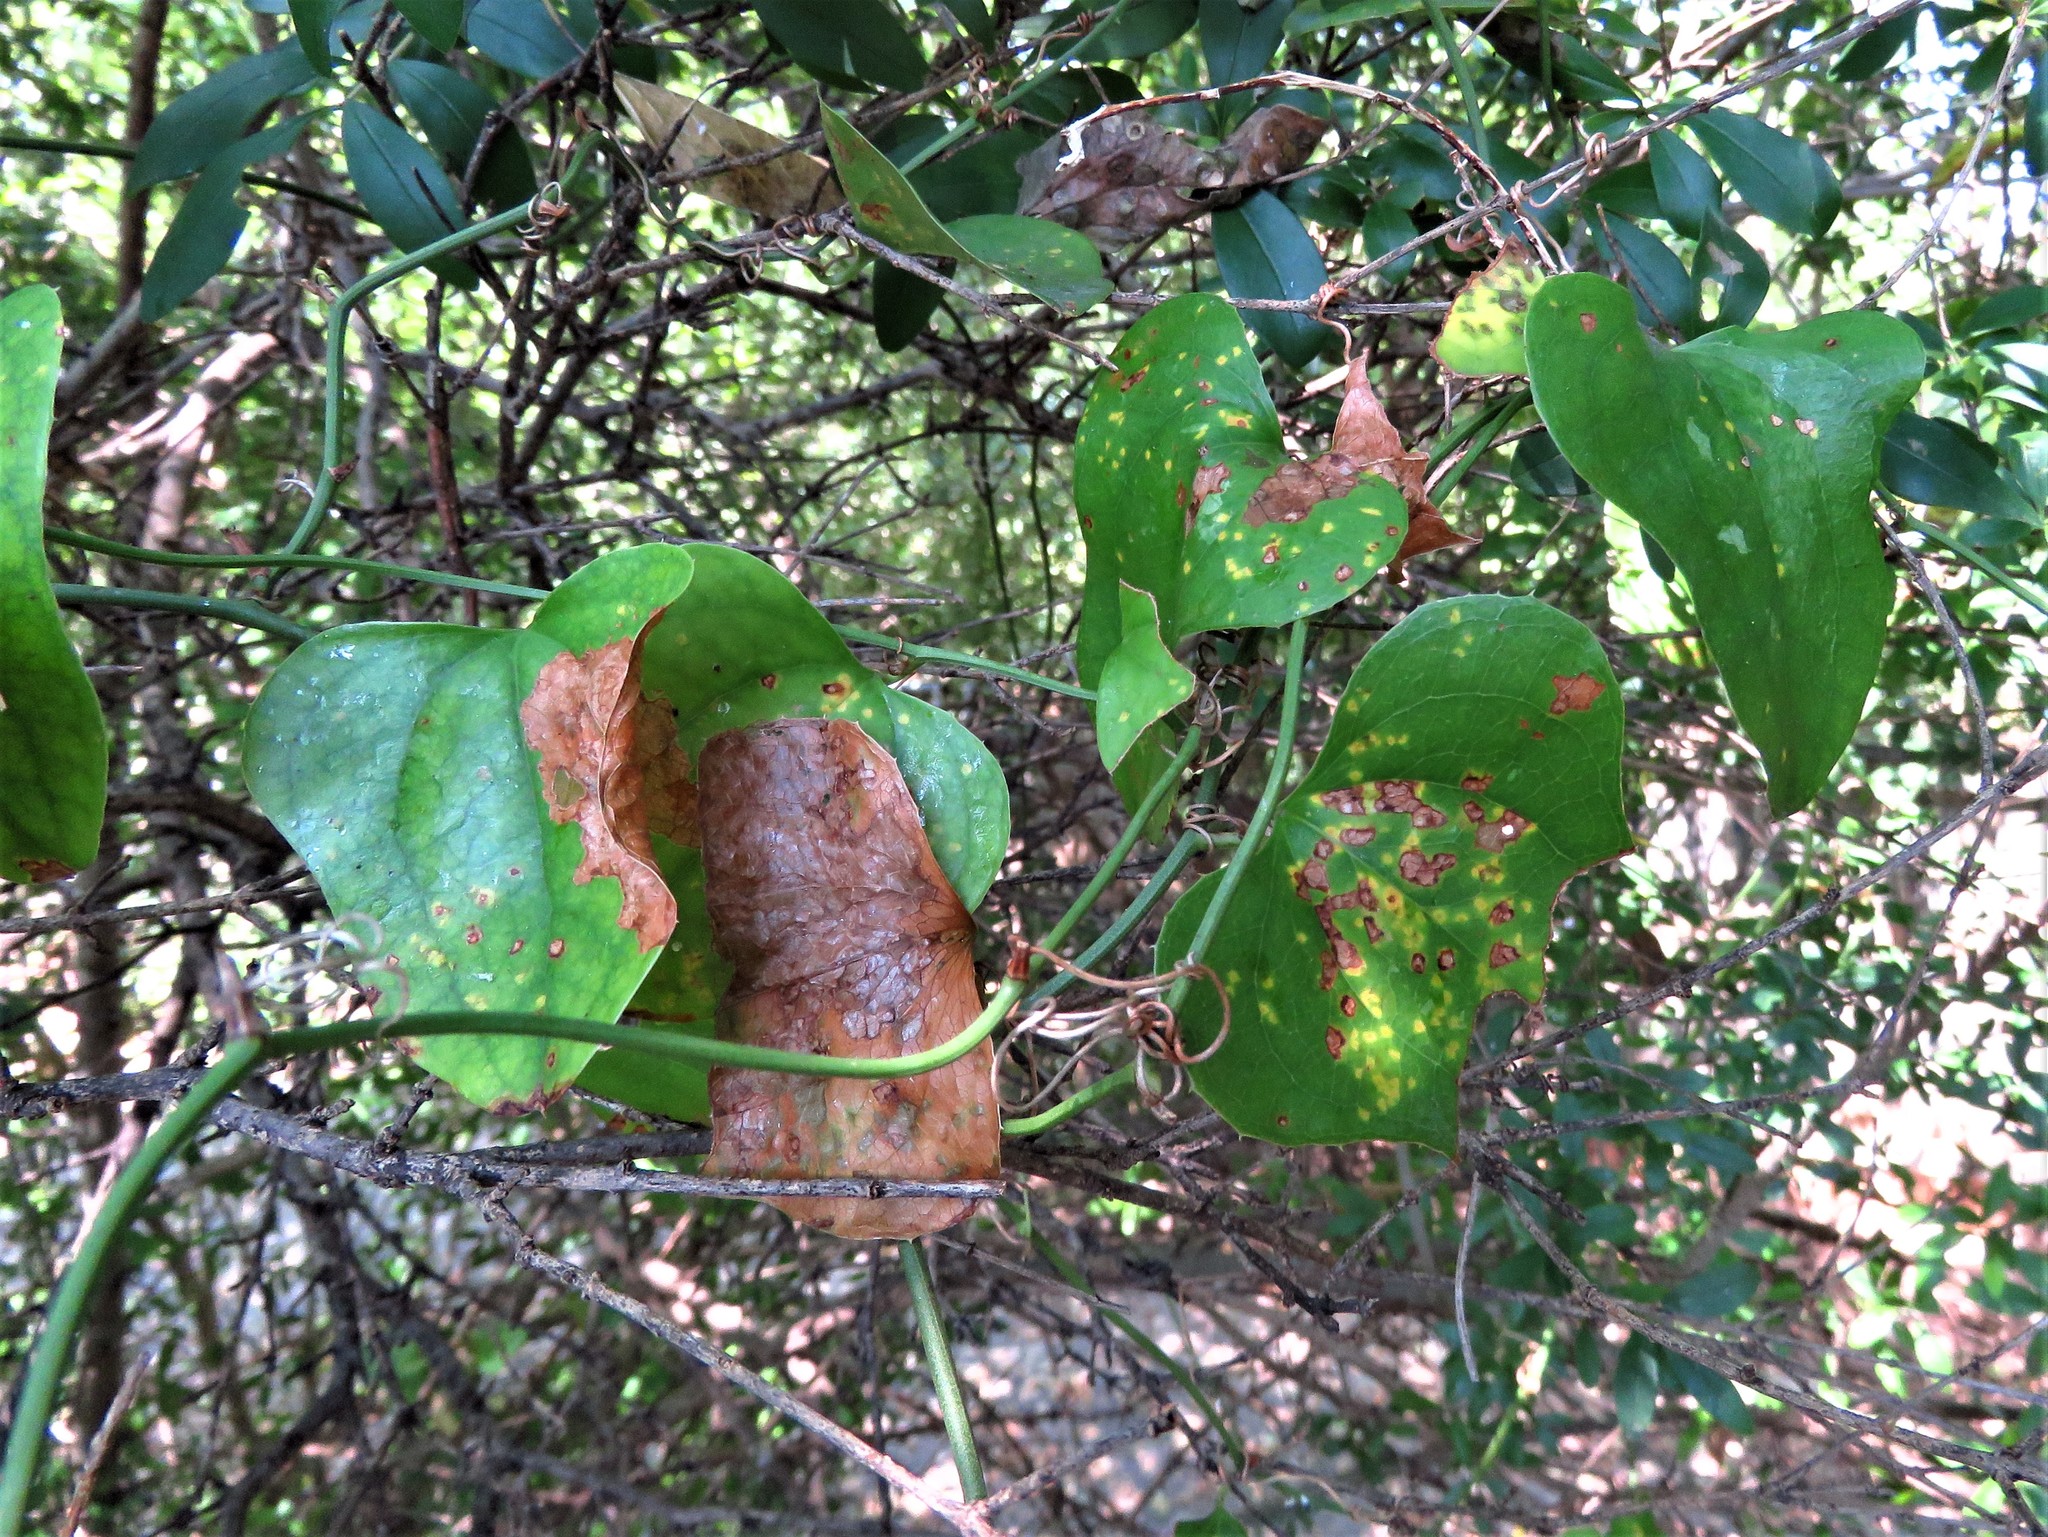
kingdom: Plantae
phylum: Tracheophyta
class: Liliopsida
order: Liliales
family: Smilacaceae
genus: Smilax
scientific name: Smilax bona-nox
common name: Catbrier
